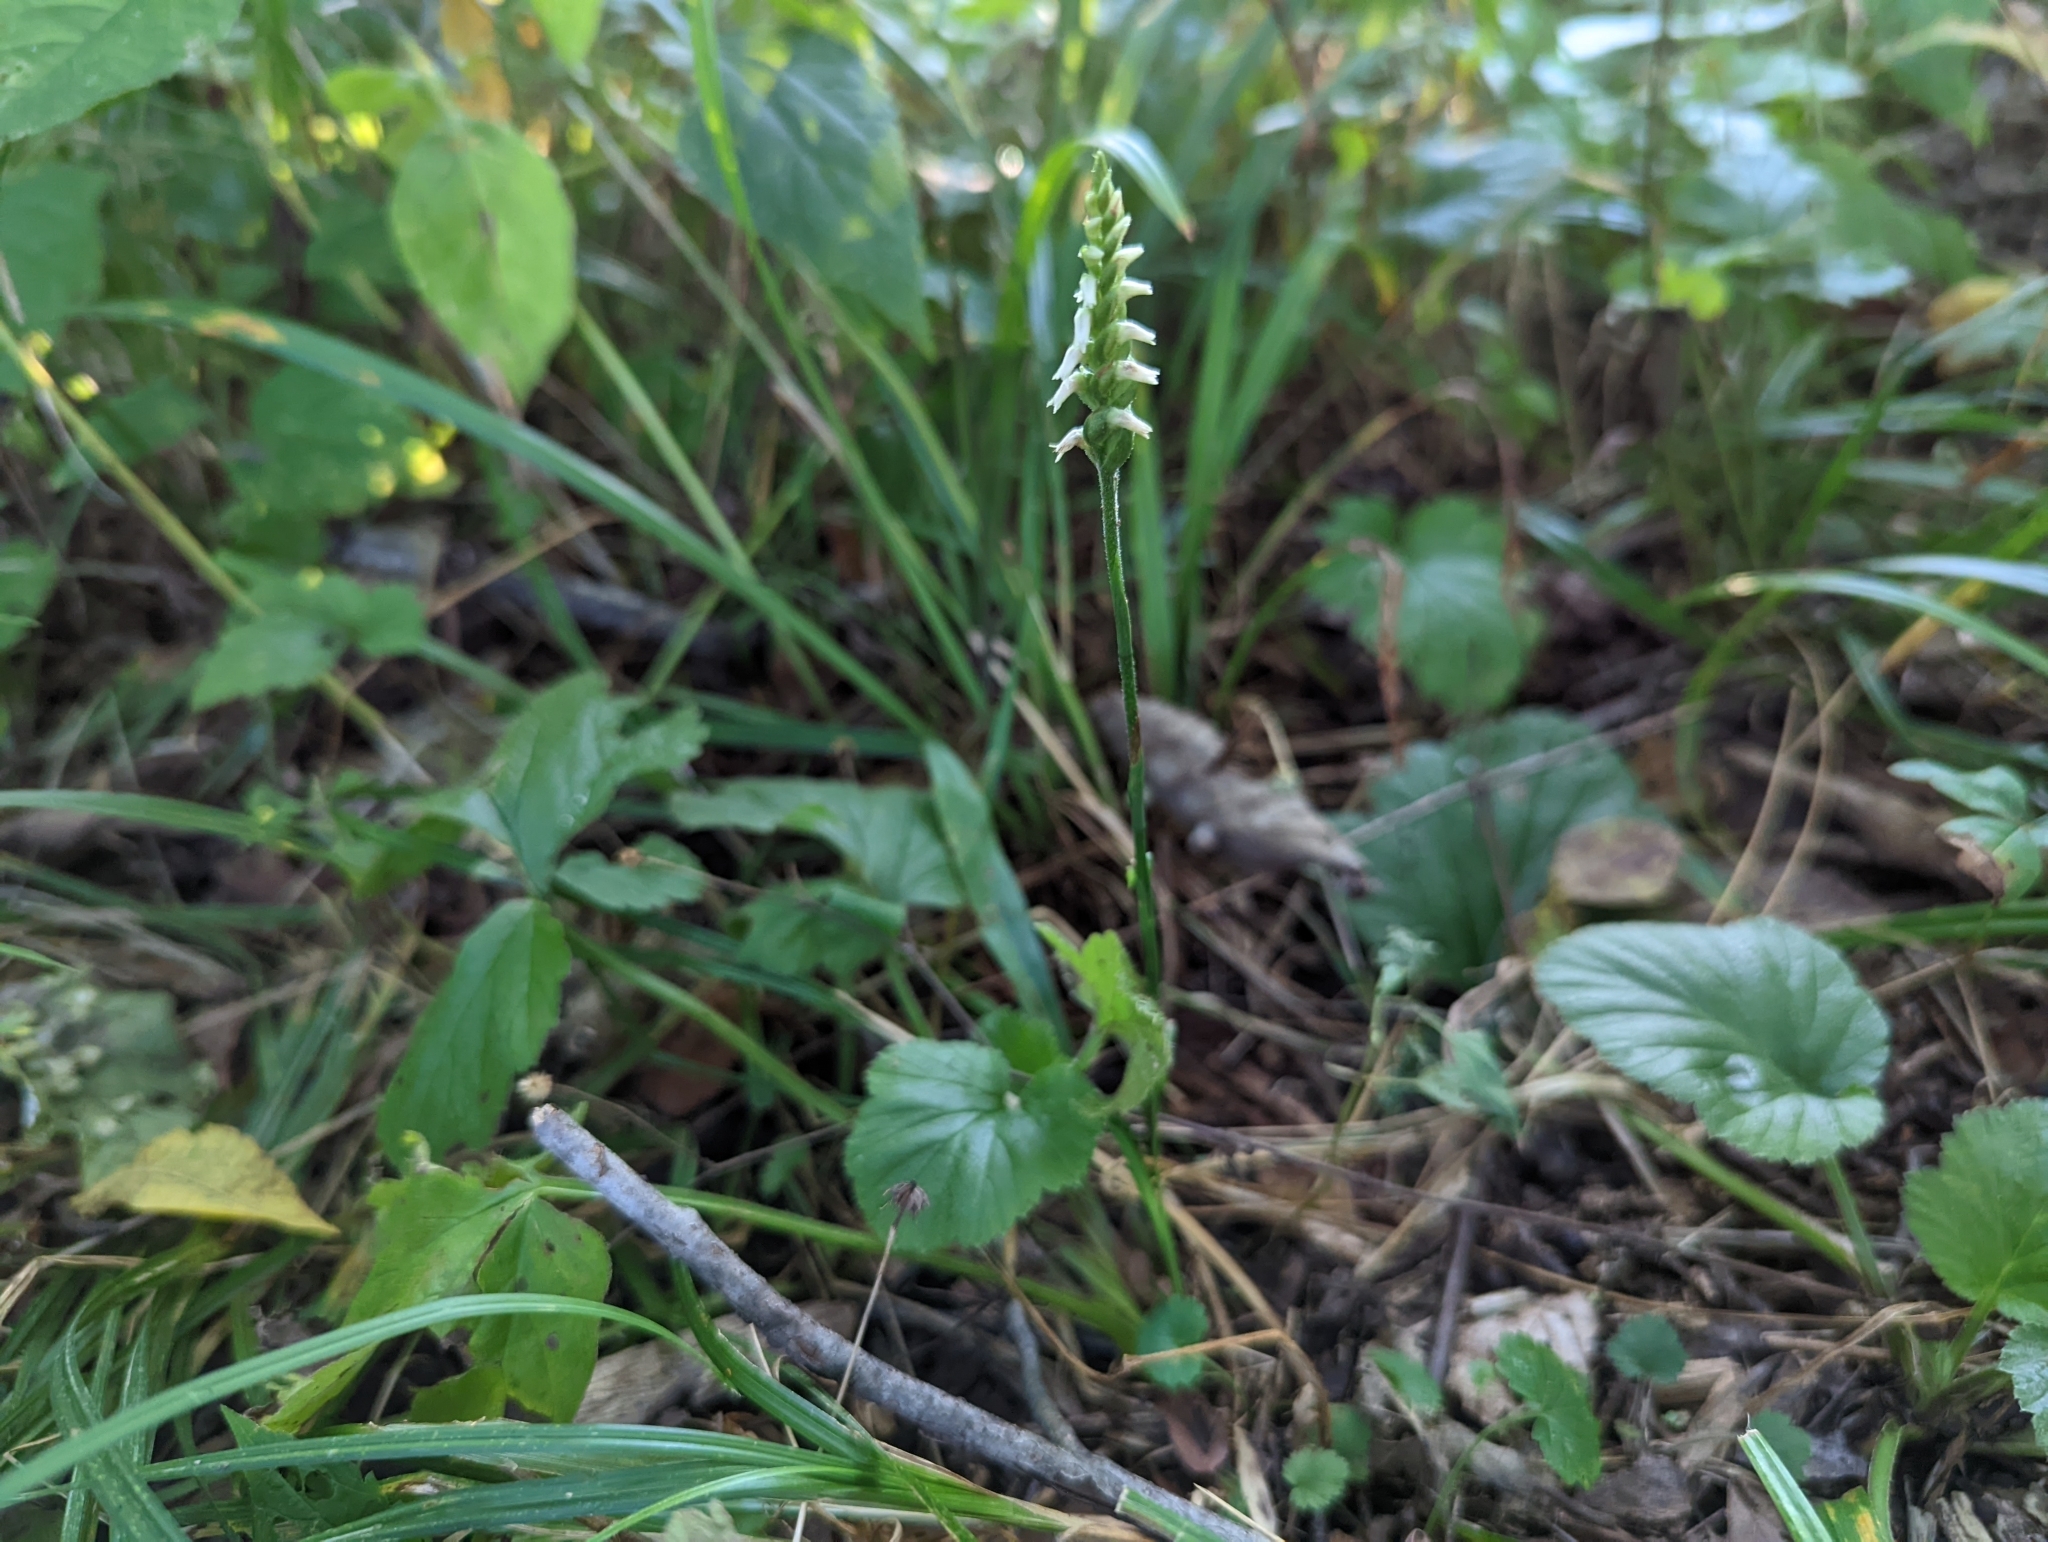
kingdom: Plantae
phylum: Tracheophyta
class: Liliopsida
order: Asparagales
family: Orchidaceae
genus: Spiranthes
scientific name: Spiranthes ovalis
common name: October ladies'-tresses
